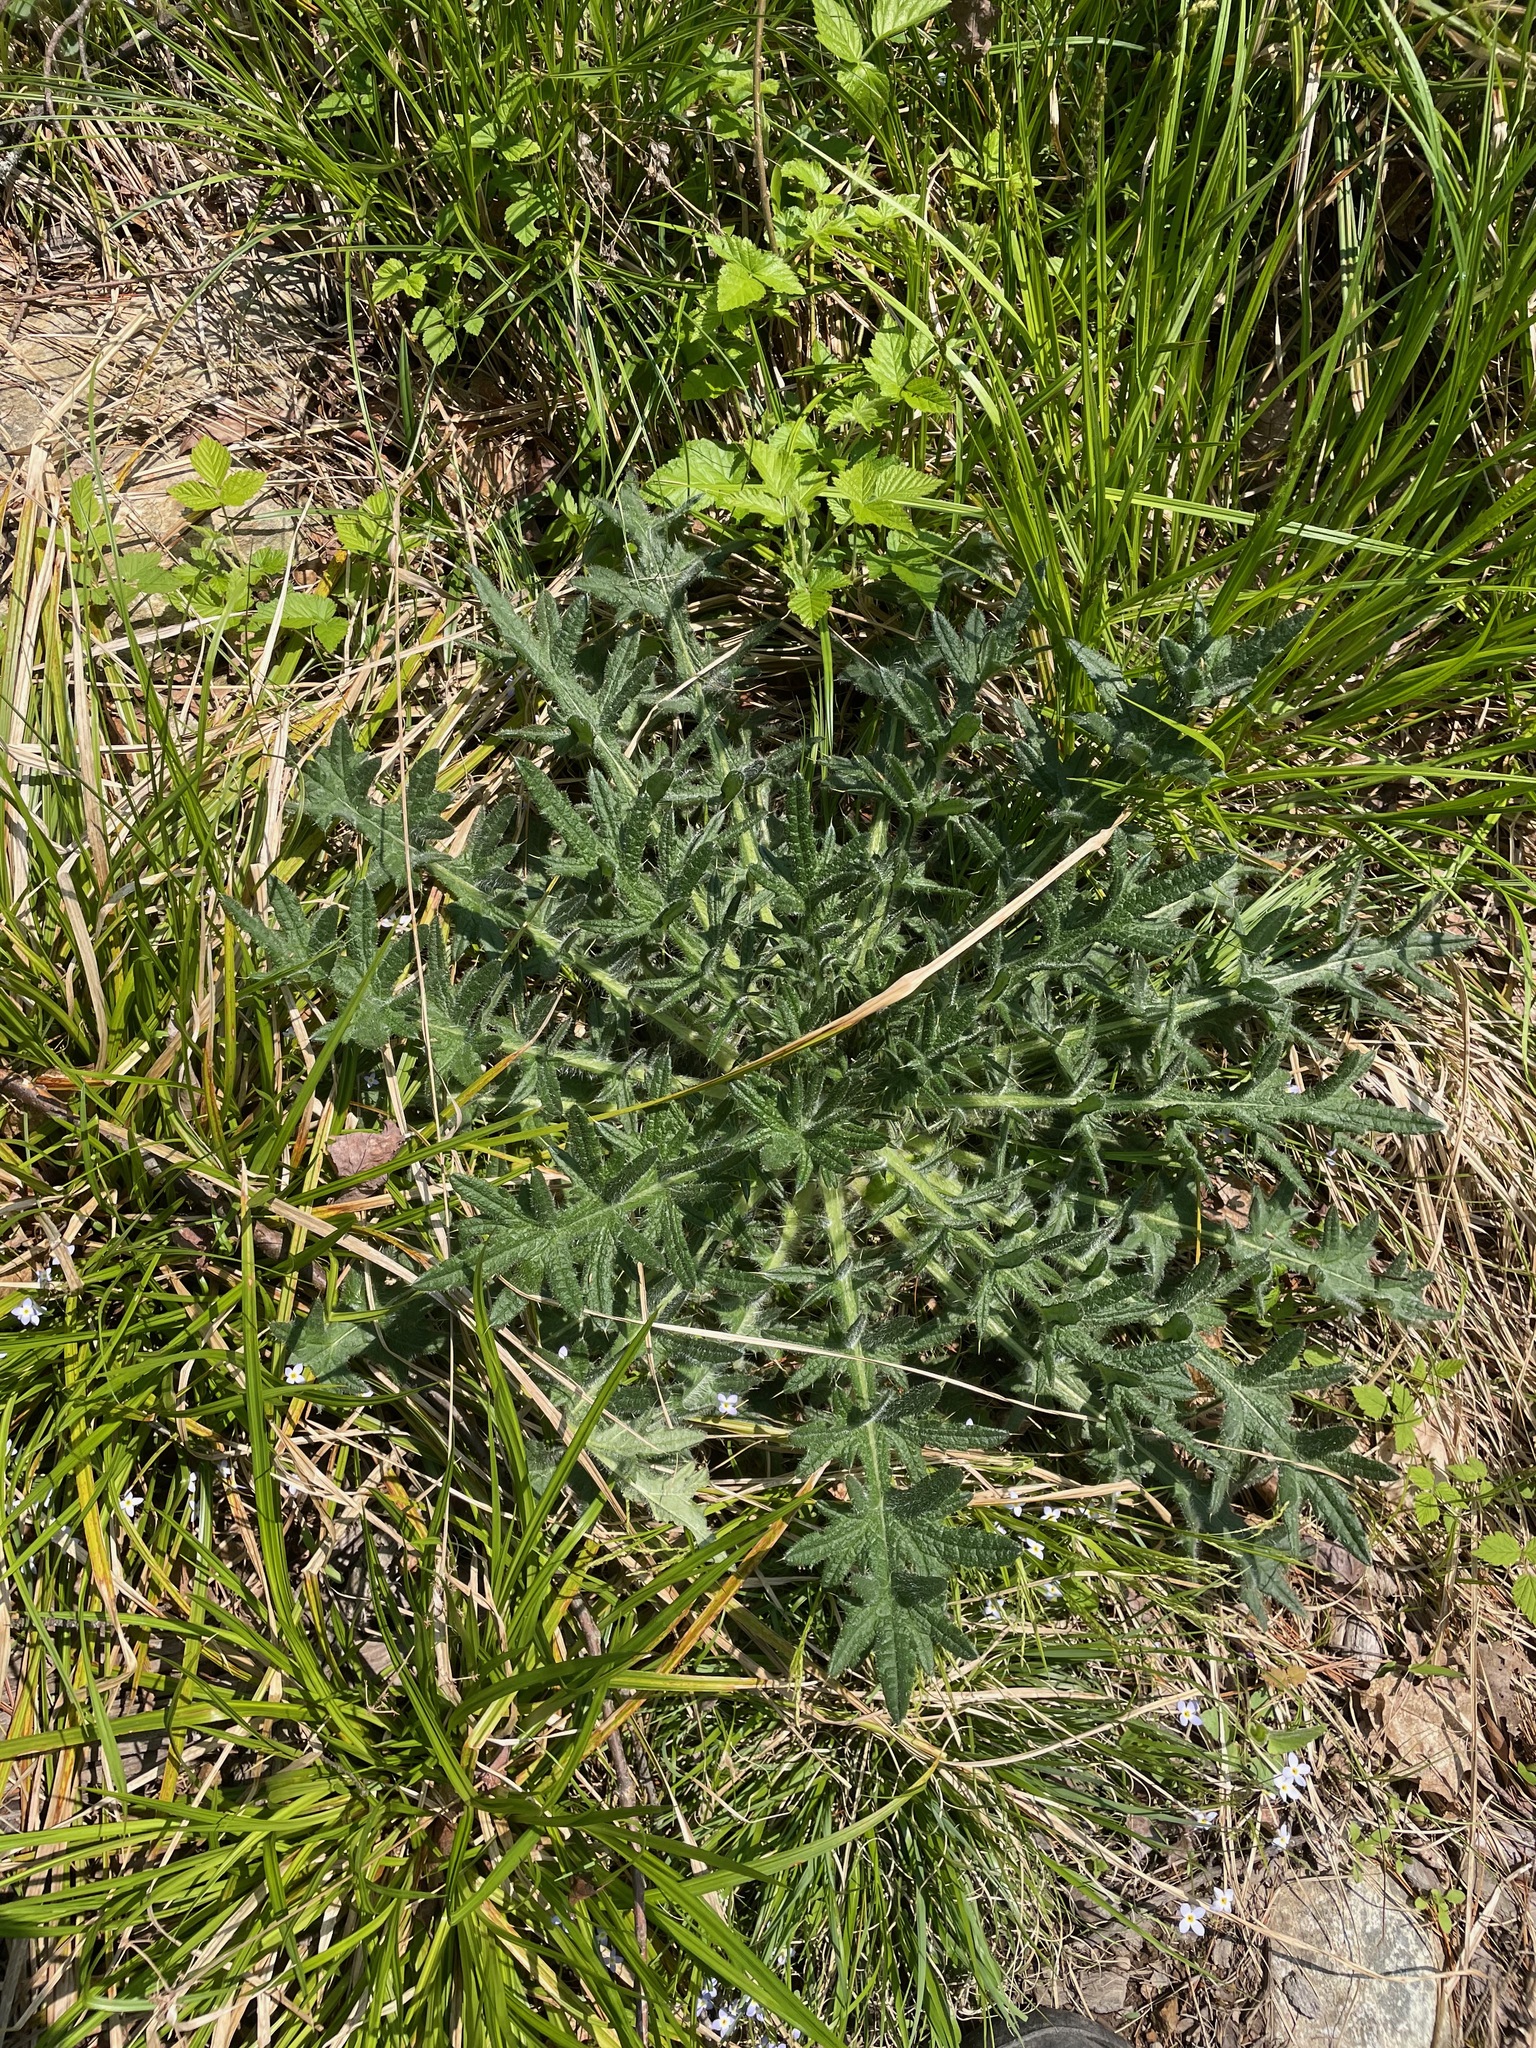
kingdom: Plantae
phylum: Tracheophyta
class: Magnoliopsida
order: Asterales
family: Asteraceae
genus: Cirsium
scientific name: Cirsium vulgare
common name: Bull thistle
